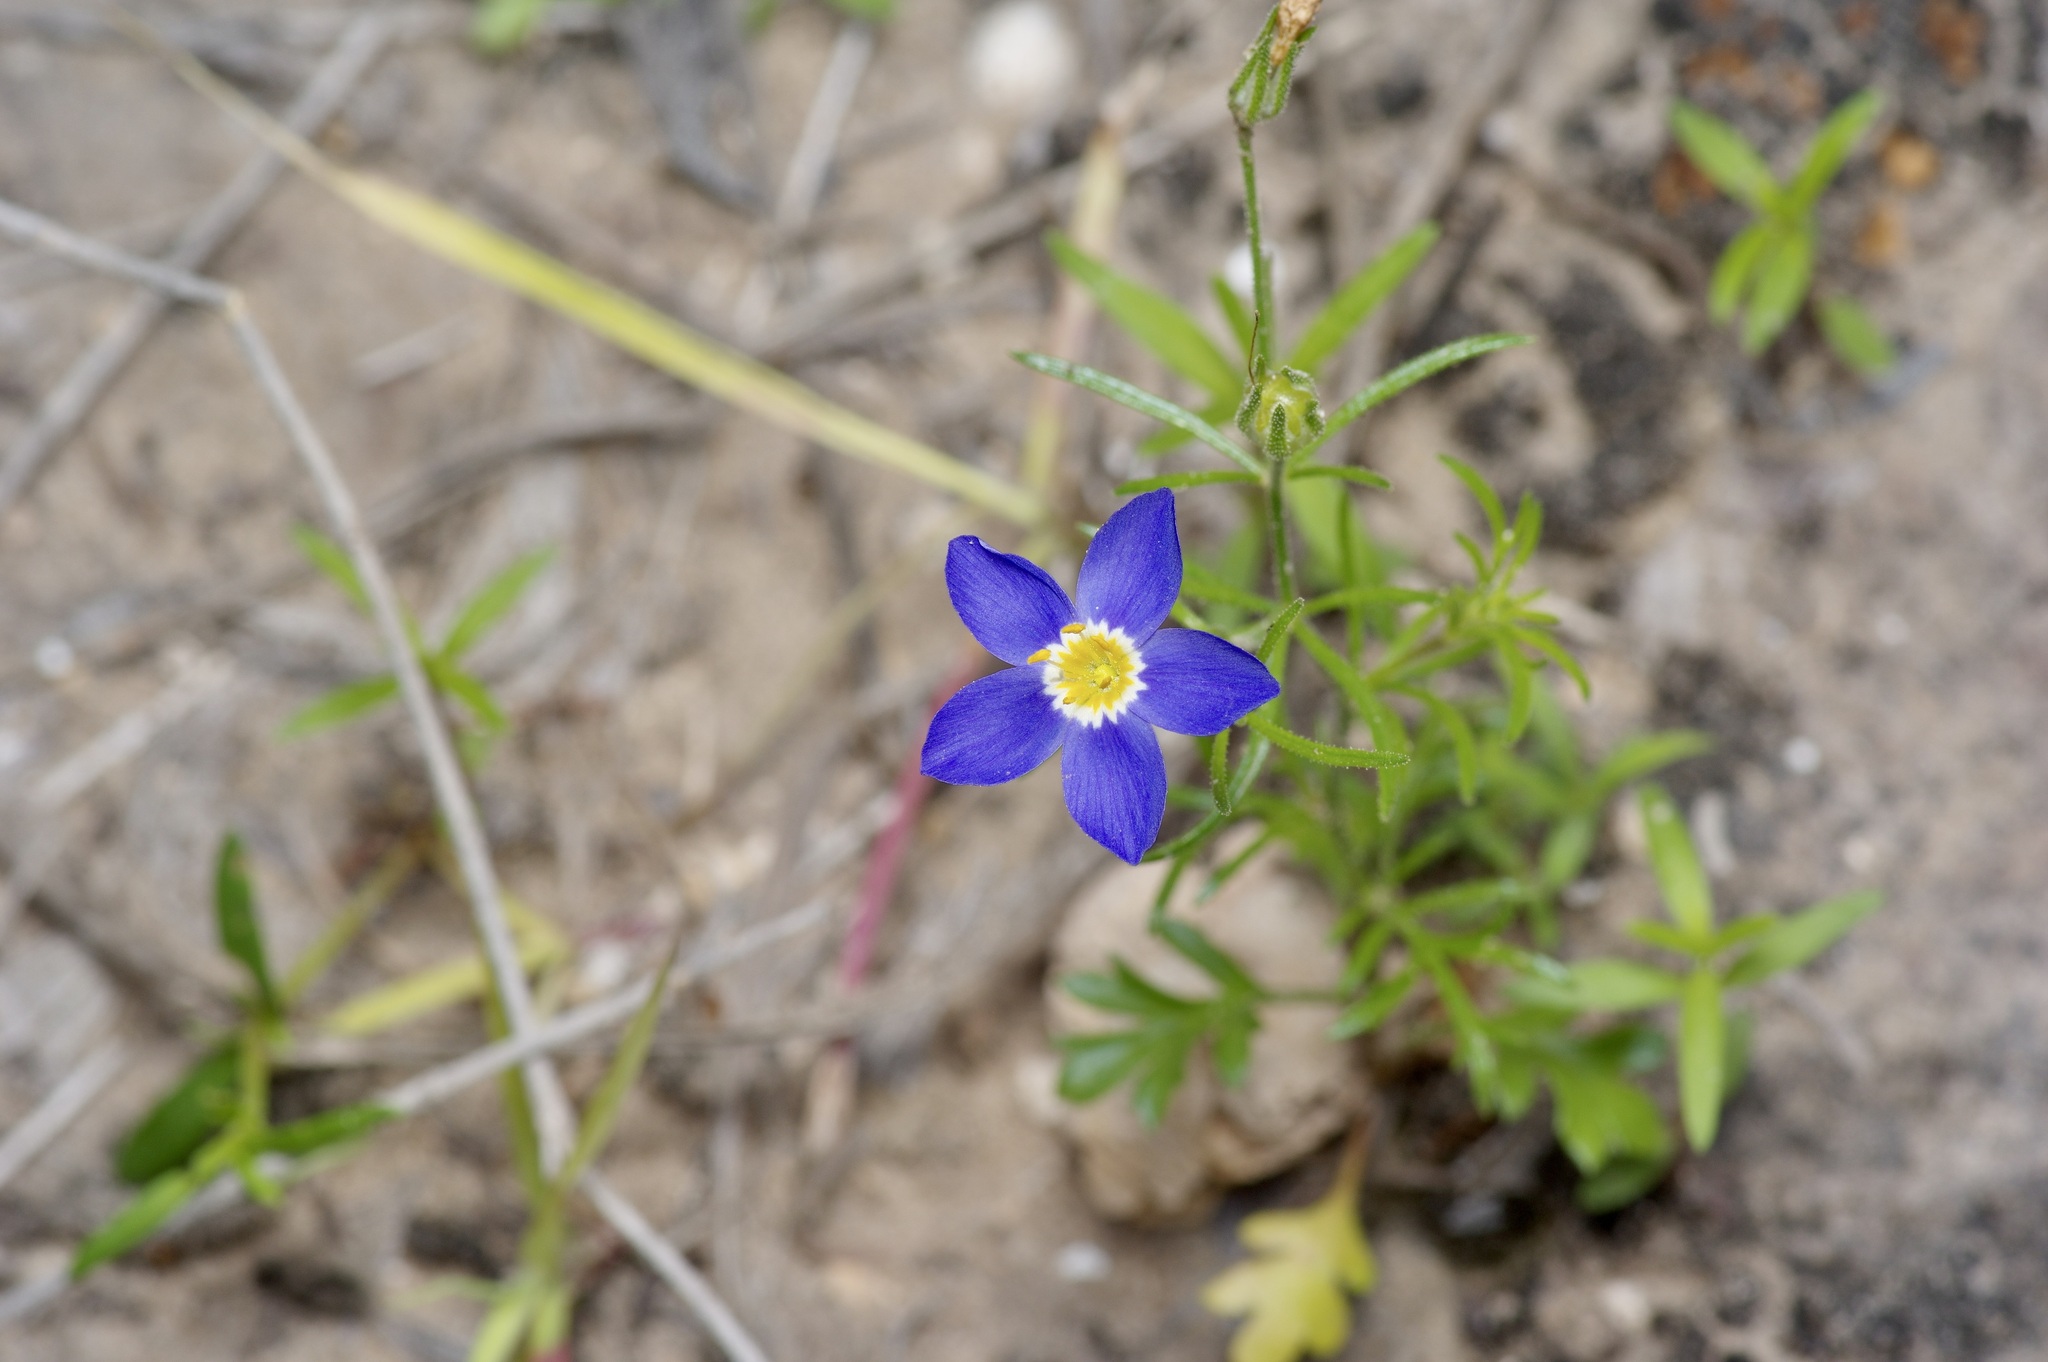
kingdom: Plantae
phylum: Tracheophyta
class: Magnoliopsida
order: Ericales
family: Polemoniaceae
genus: Giliastrum
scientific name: Giliastrum ludens
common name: Rio grande gilia
